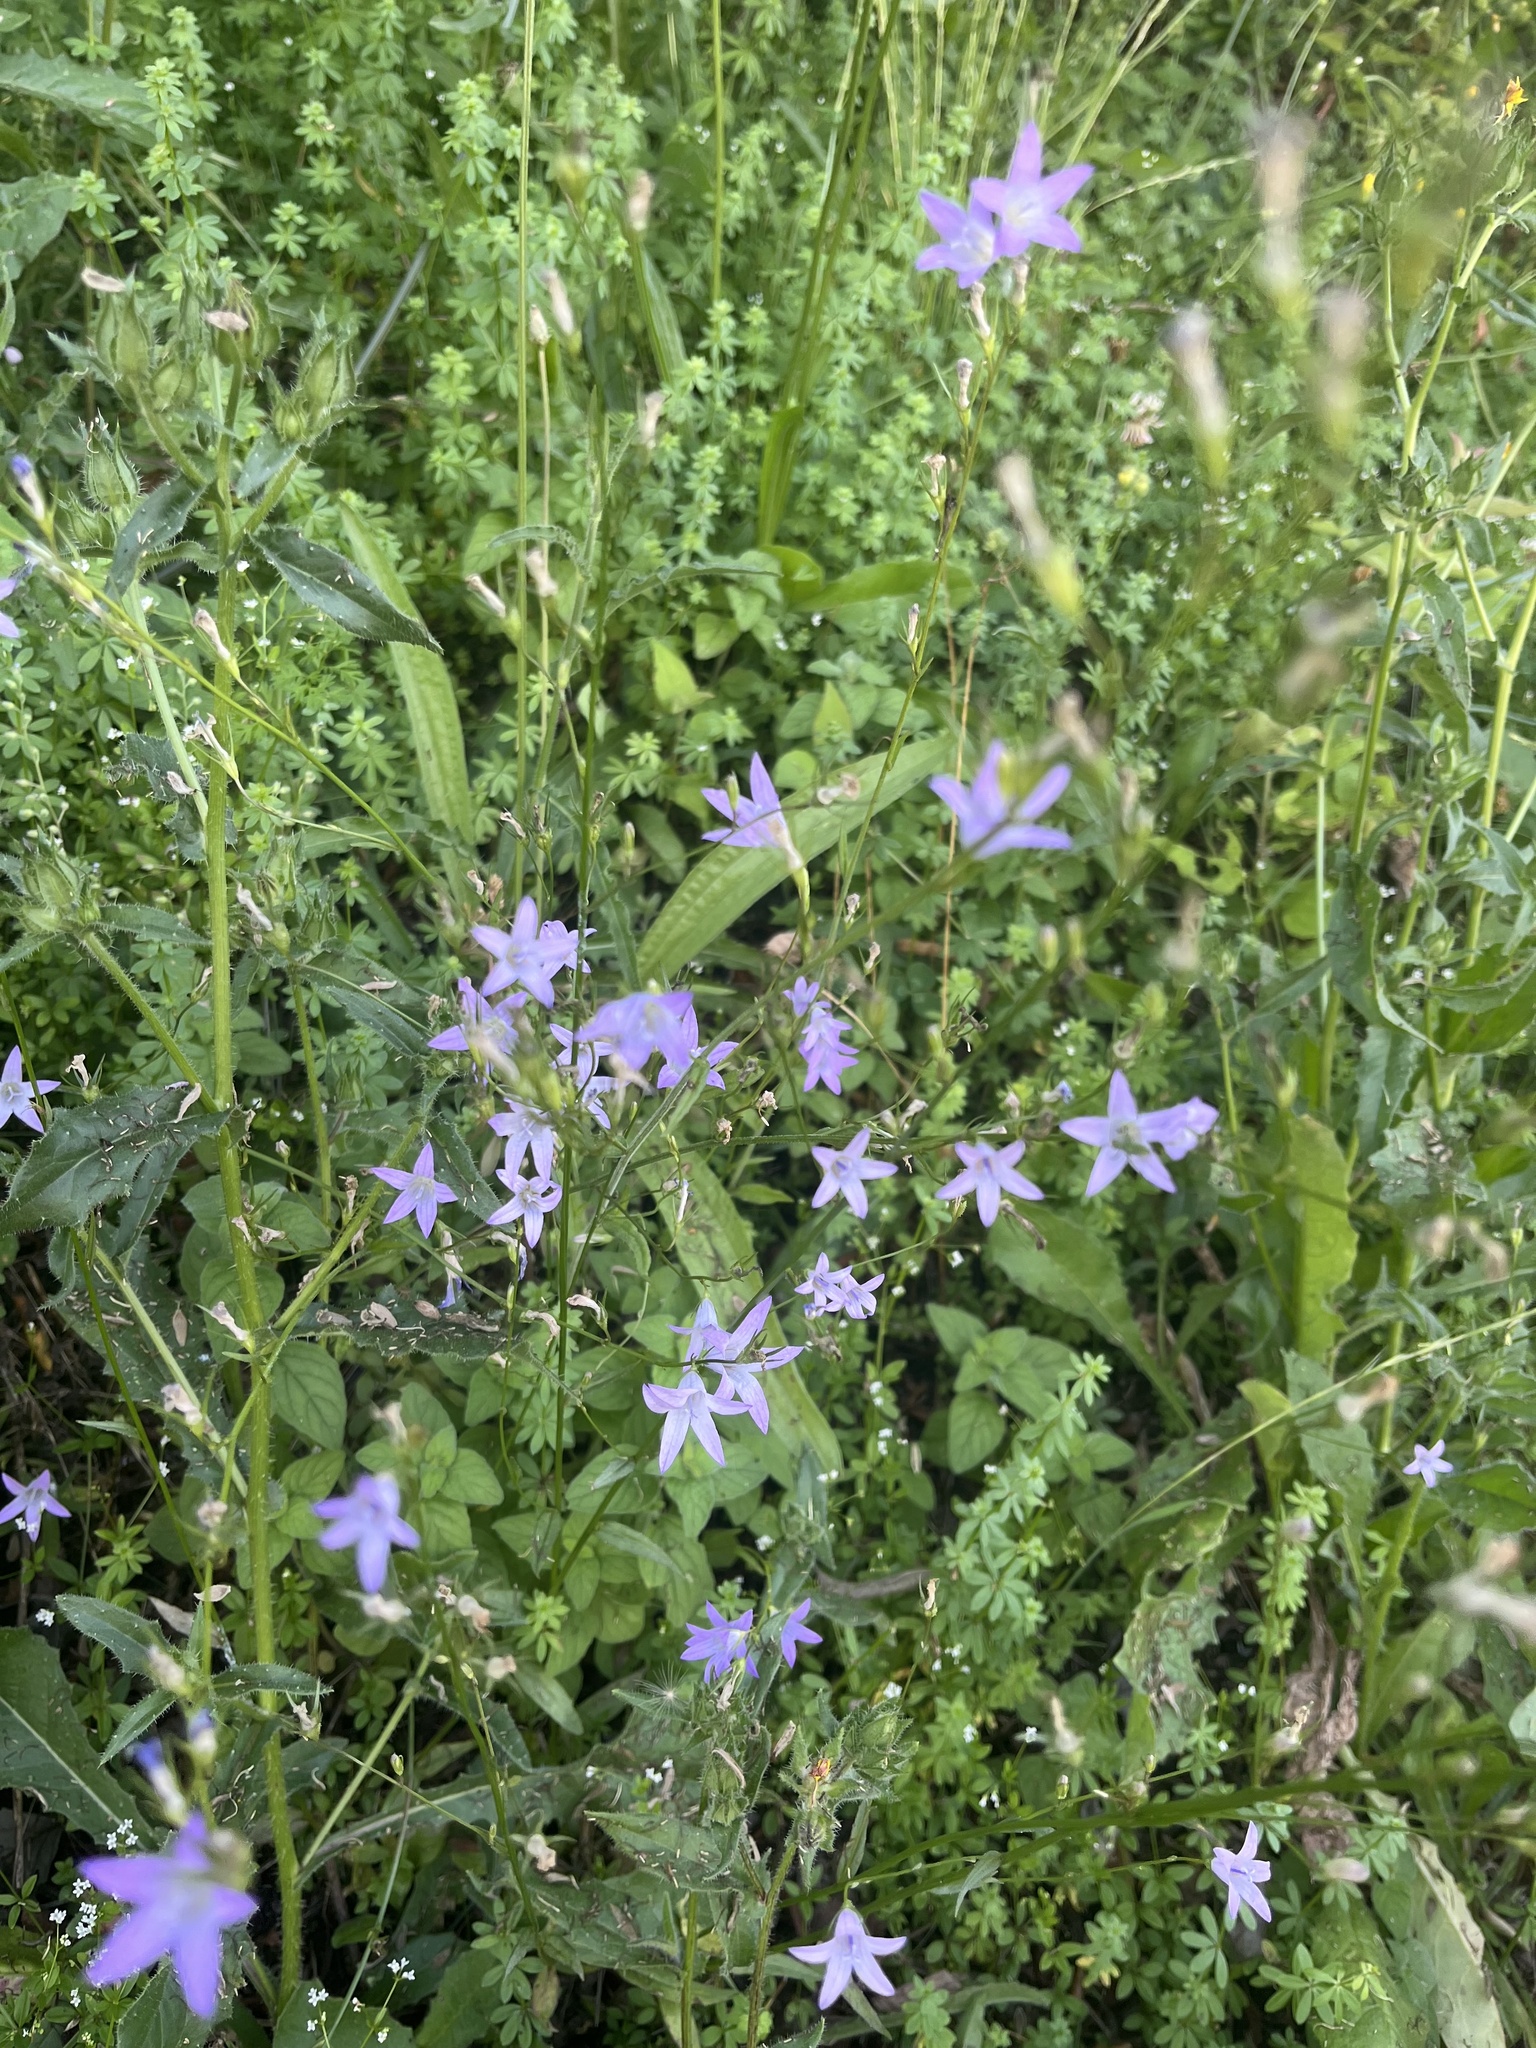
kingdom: Plantae
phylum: Tracheophyta
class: Magnoliopsida
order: Asterales
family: Campanulaceae
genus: Campanula
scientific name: Campanula rapunculus
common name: Rampion bellflower
